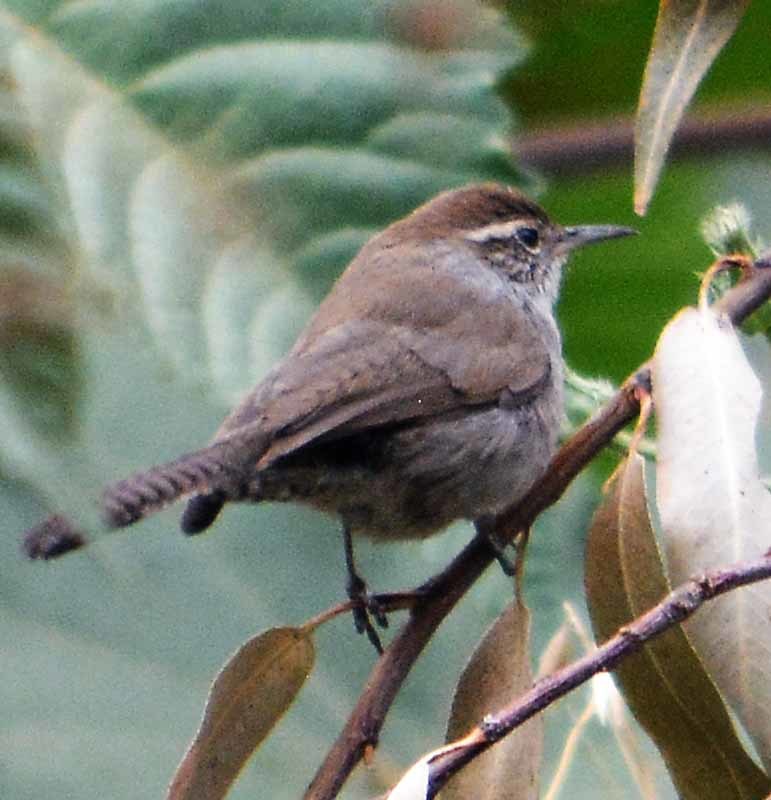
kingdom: Animalia
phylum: Chordata
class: Aves
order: Passeriformes
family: Troglodytidae
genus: Thryomanes
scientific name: Thryomanes bewickii
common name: Bewick's wren
